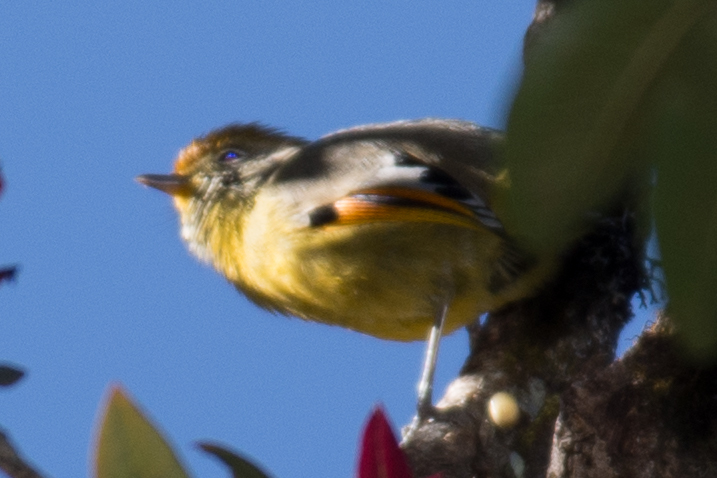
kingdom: Animalia
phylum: Chordata
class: Aves
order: Passeriformes
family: Leiothrichidae
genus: Minla
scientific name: Minla strigula
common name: Chestnut-tailed minla
